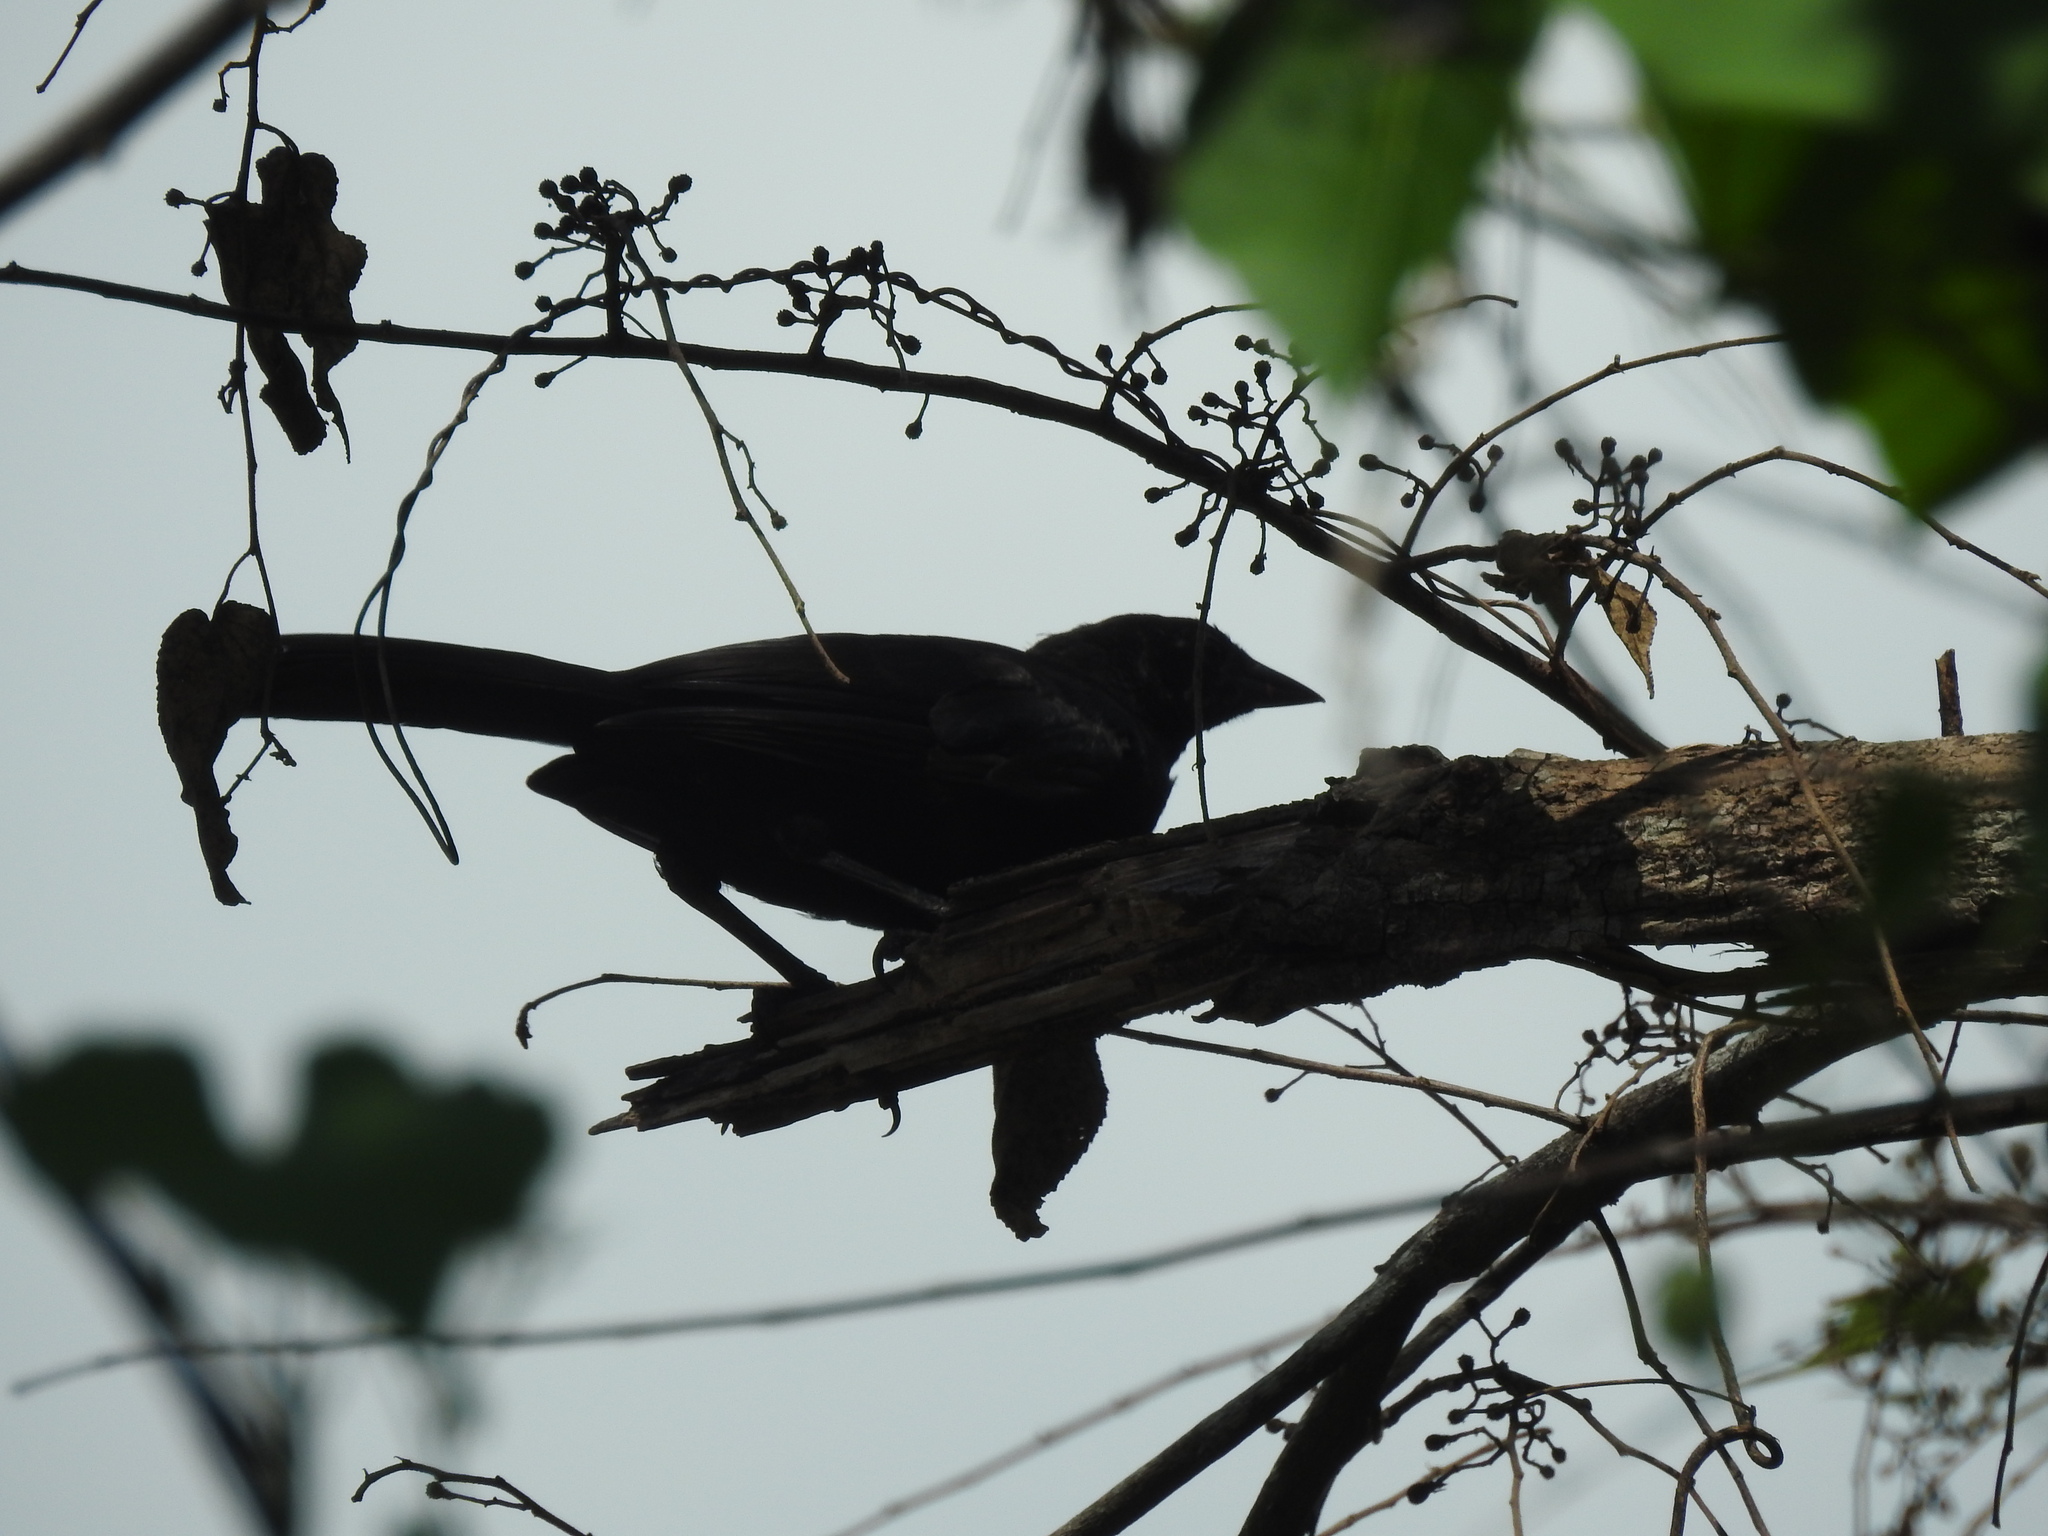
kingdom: Animalia
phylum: Chordata
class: Aves
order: Passeriformes
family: Icteridae
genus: Dives
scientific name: Dives dives
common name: Melodious blackbird
